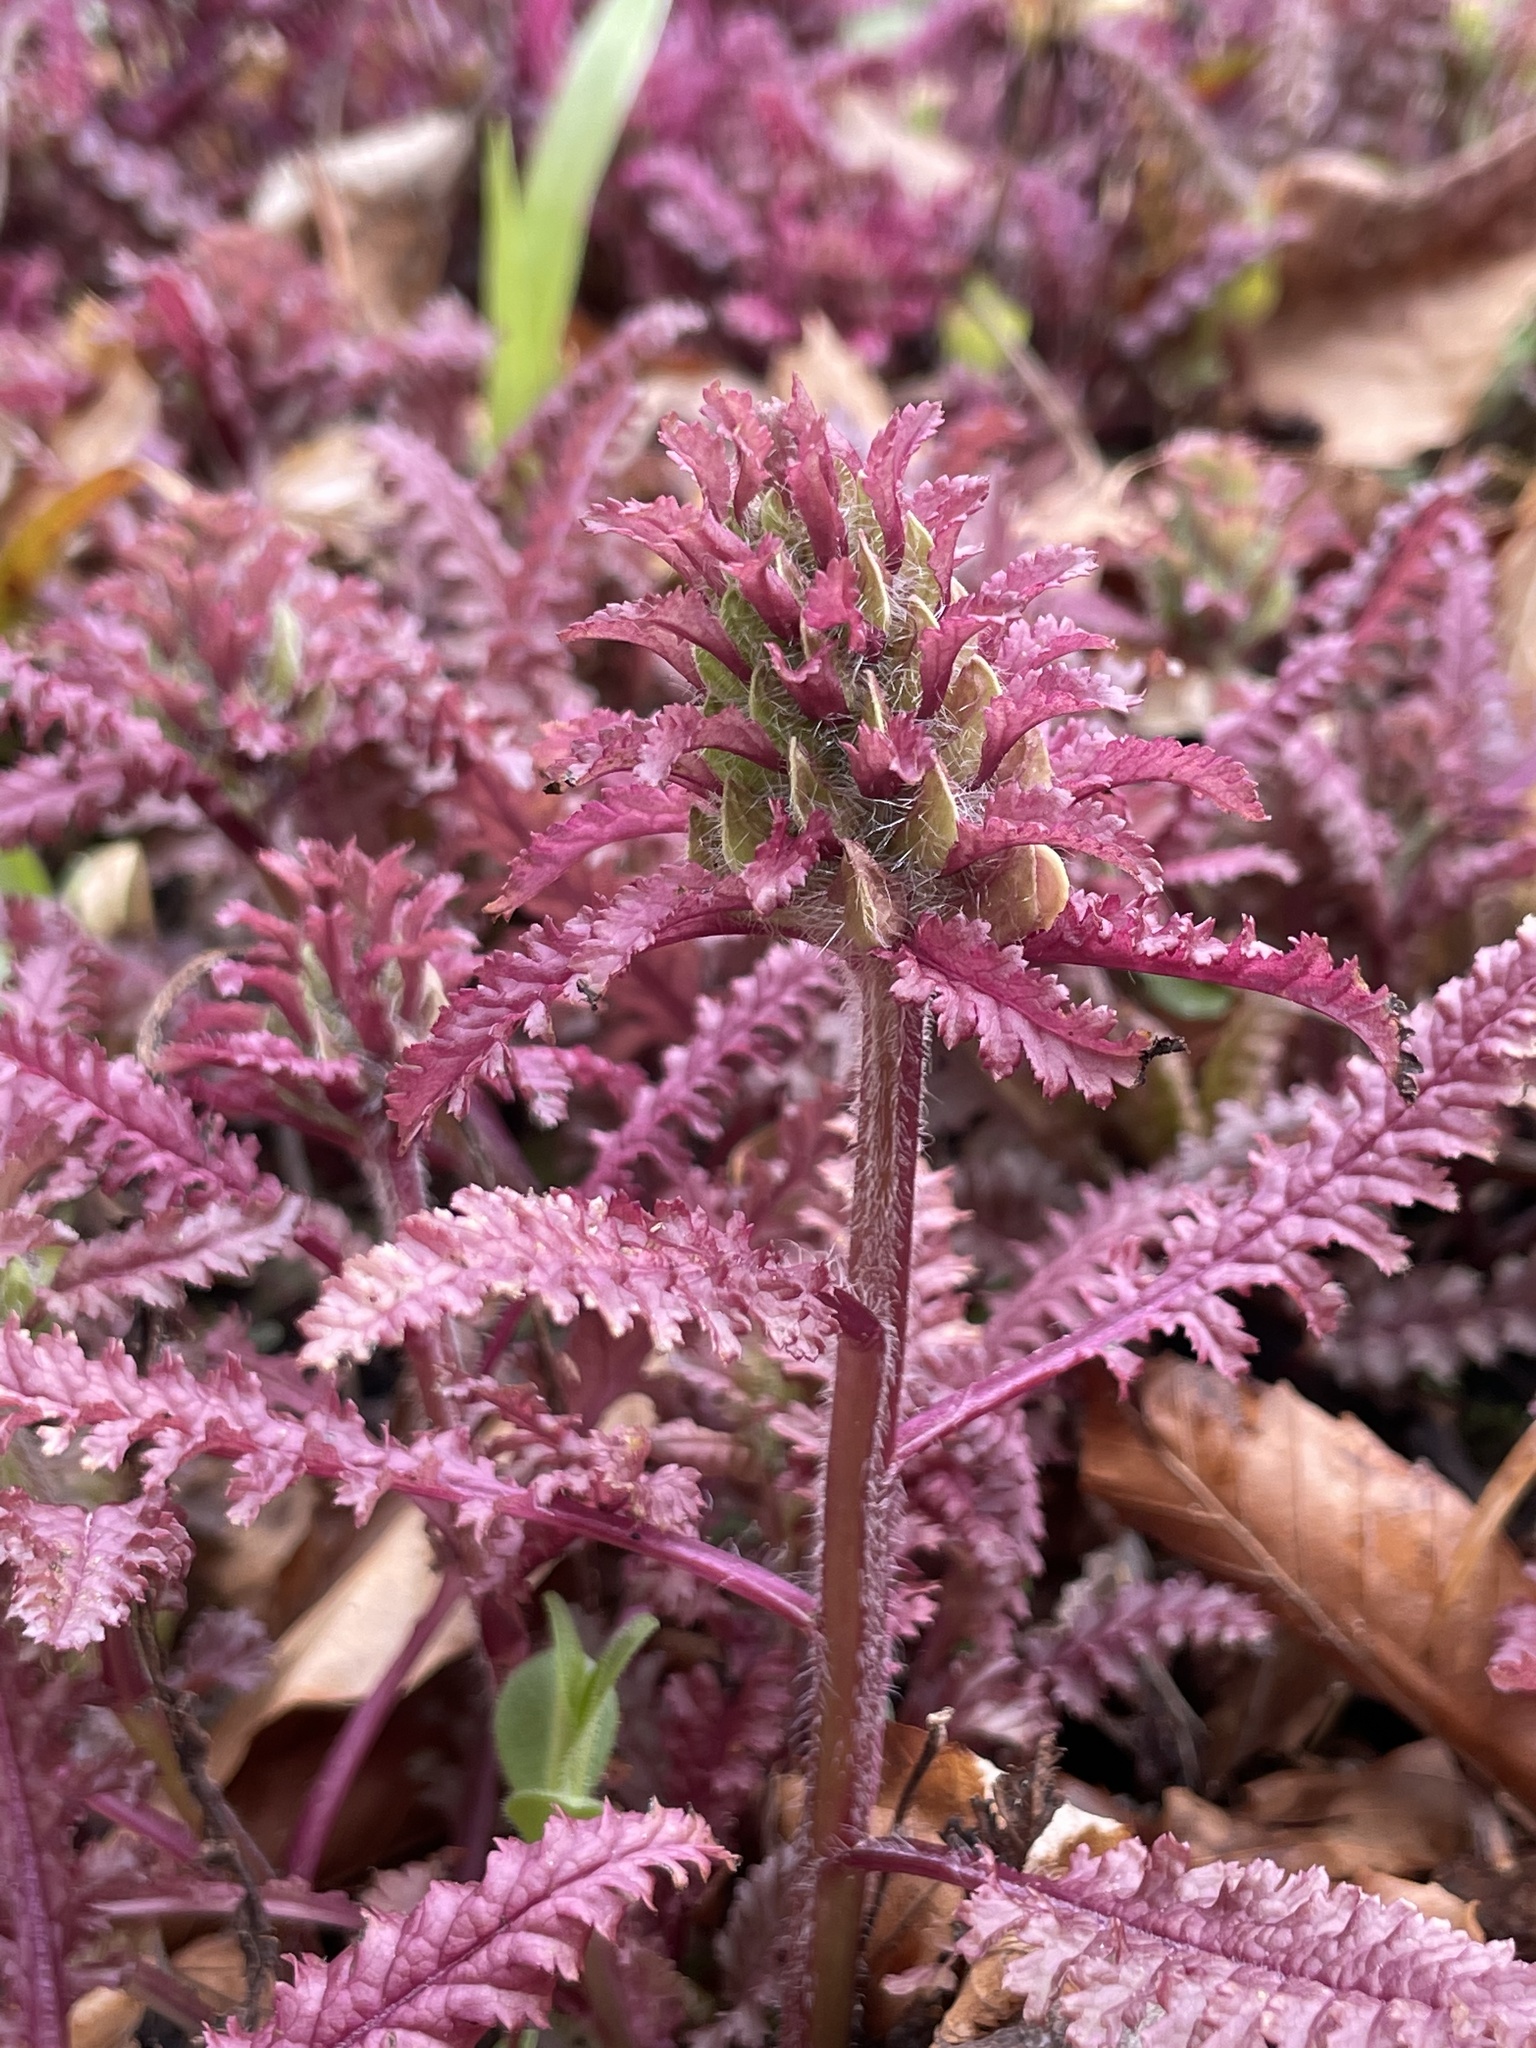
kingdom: Plantae
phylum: Tracheophyta
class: Magnoliopsida
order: Lamiales
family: Orobanchaceae
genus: Pedicularis
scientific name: Pedicularis canadensis
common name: Early lousewort
